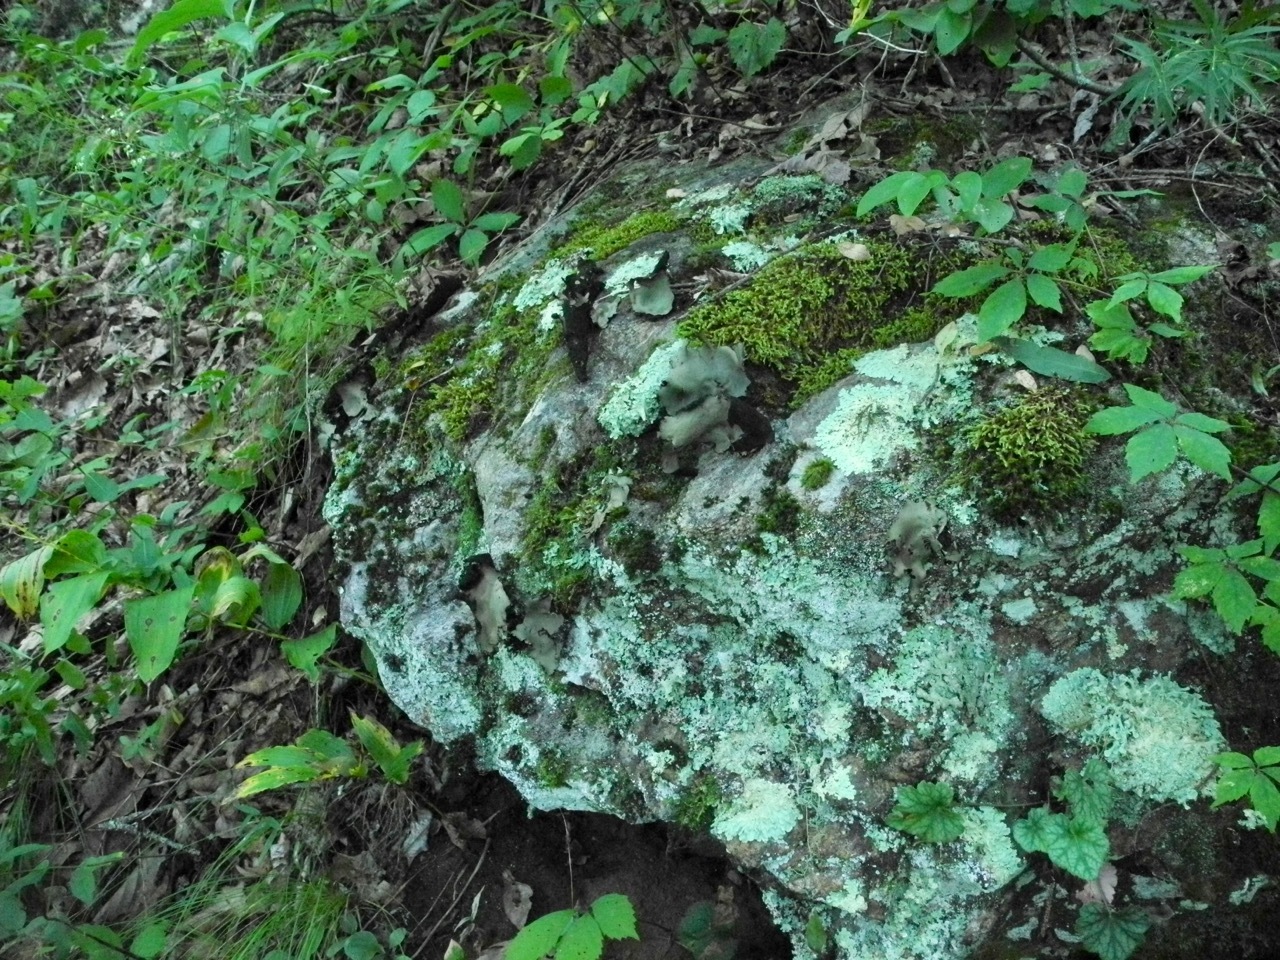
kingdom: Fungi
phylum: Ascomycota
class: Lecanoromycetes
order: Umbilicariales
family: Umbilicariaceae
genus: Umbilicaria
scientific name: Umbilicaria mammulata
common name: Smooth rock tripe
